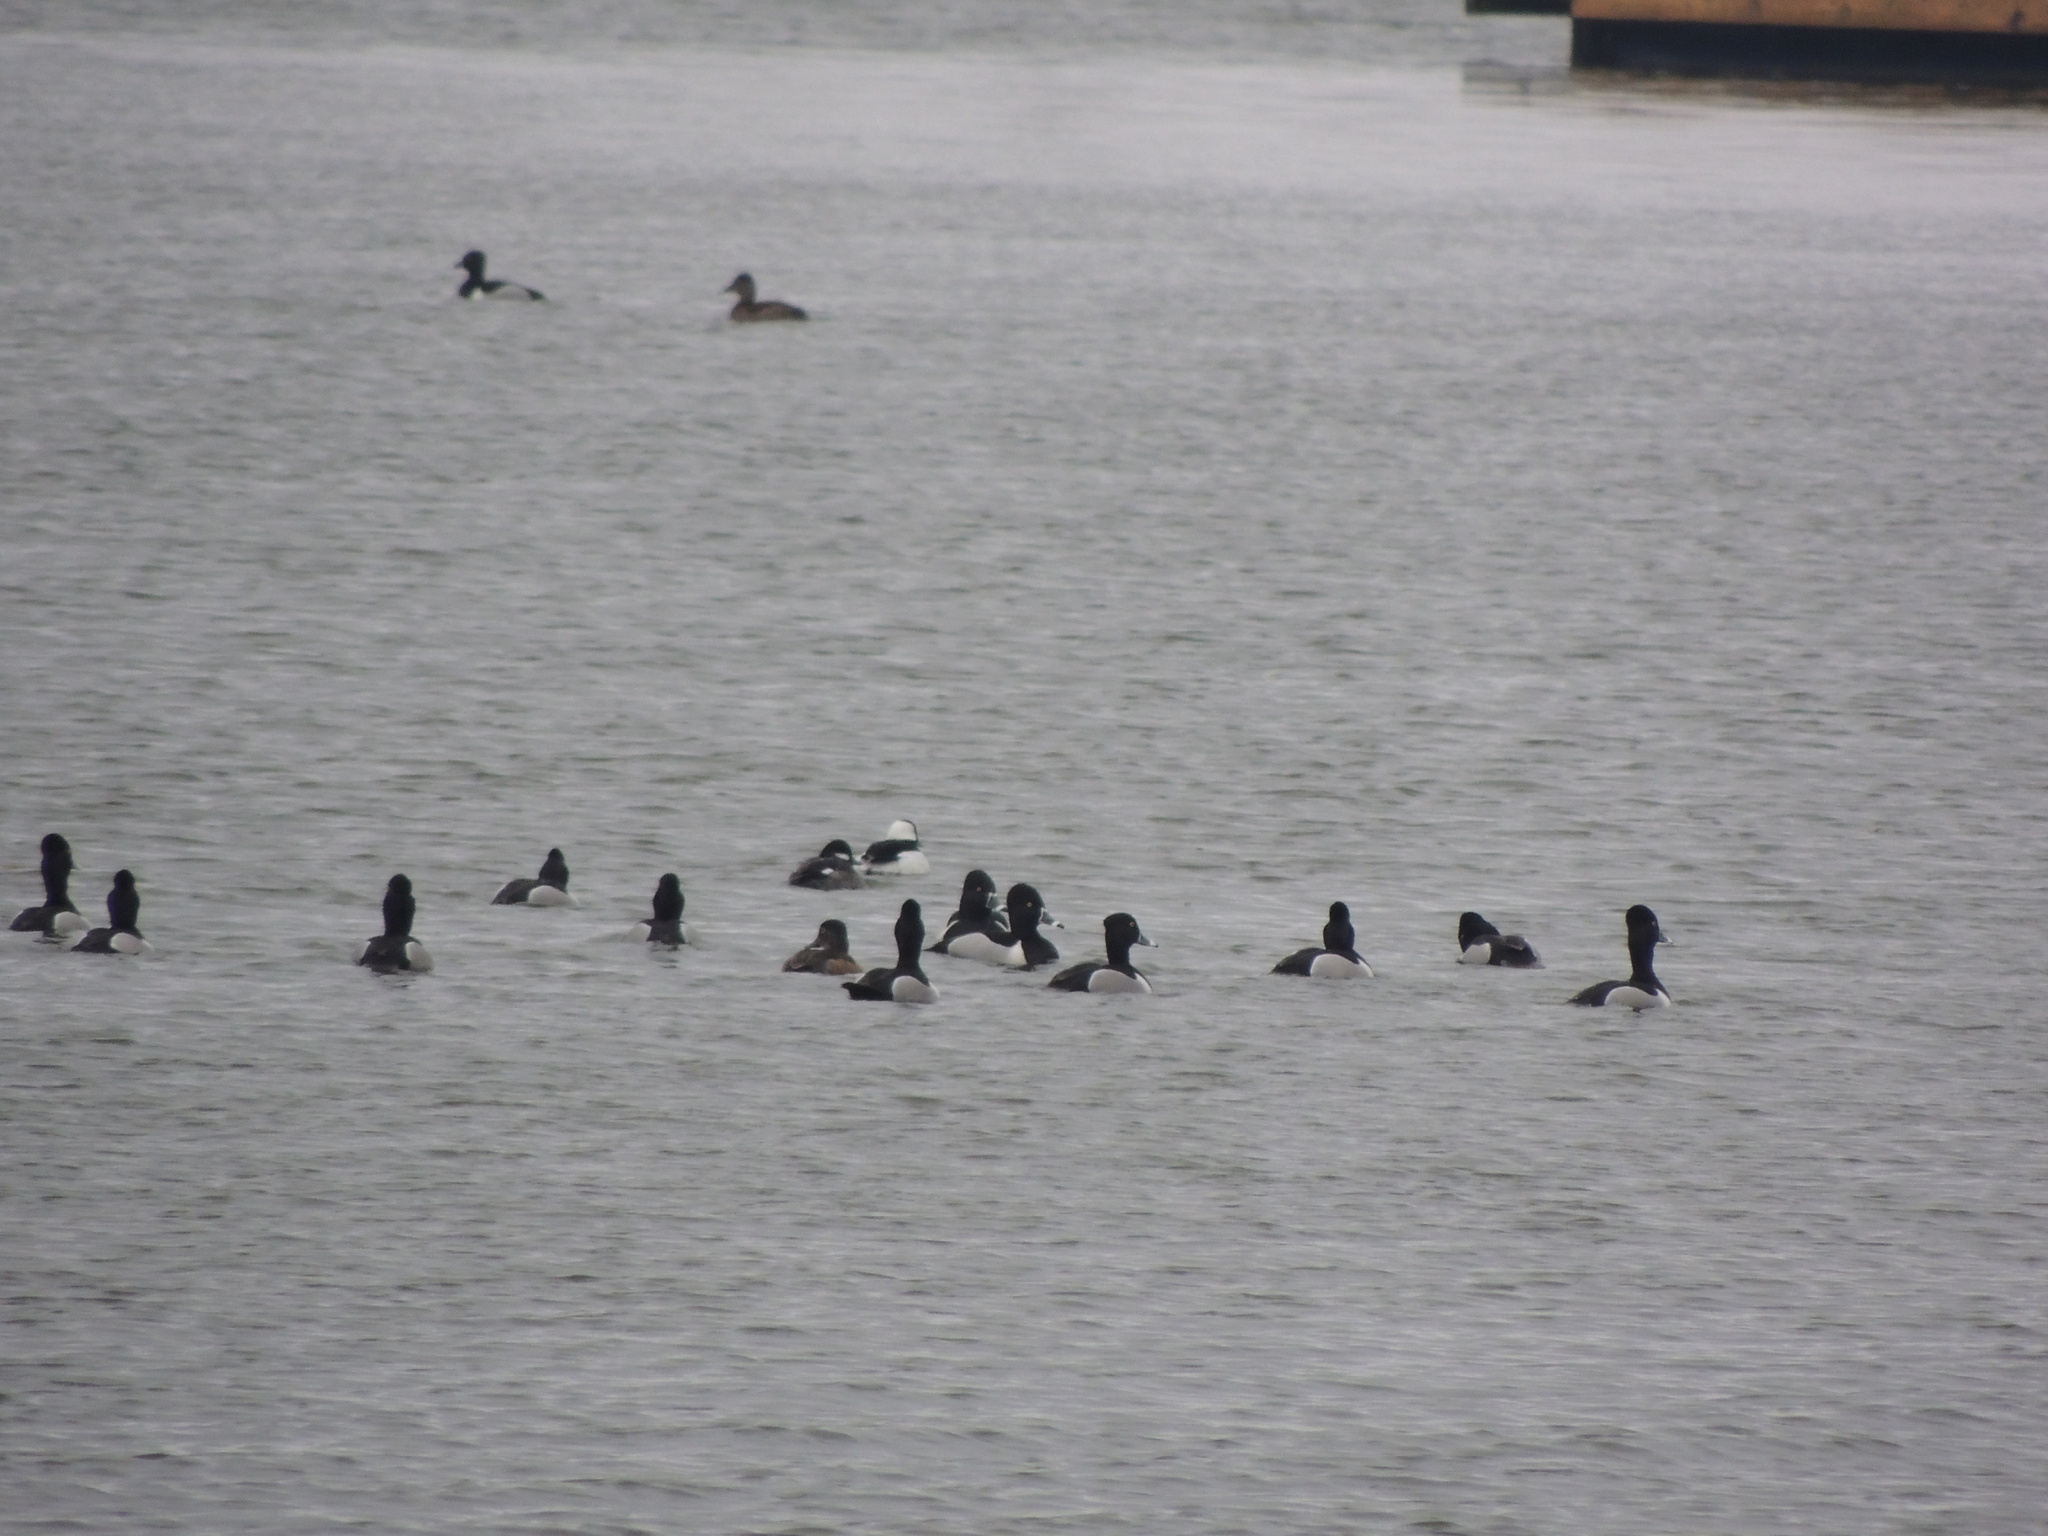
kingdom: Animalia
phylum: Chordata
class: Aves
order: Anseriformes
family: Anatidae
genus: Aythya
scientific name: Aythya collaris
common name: Ring-necked duck
